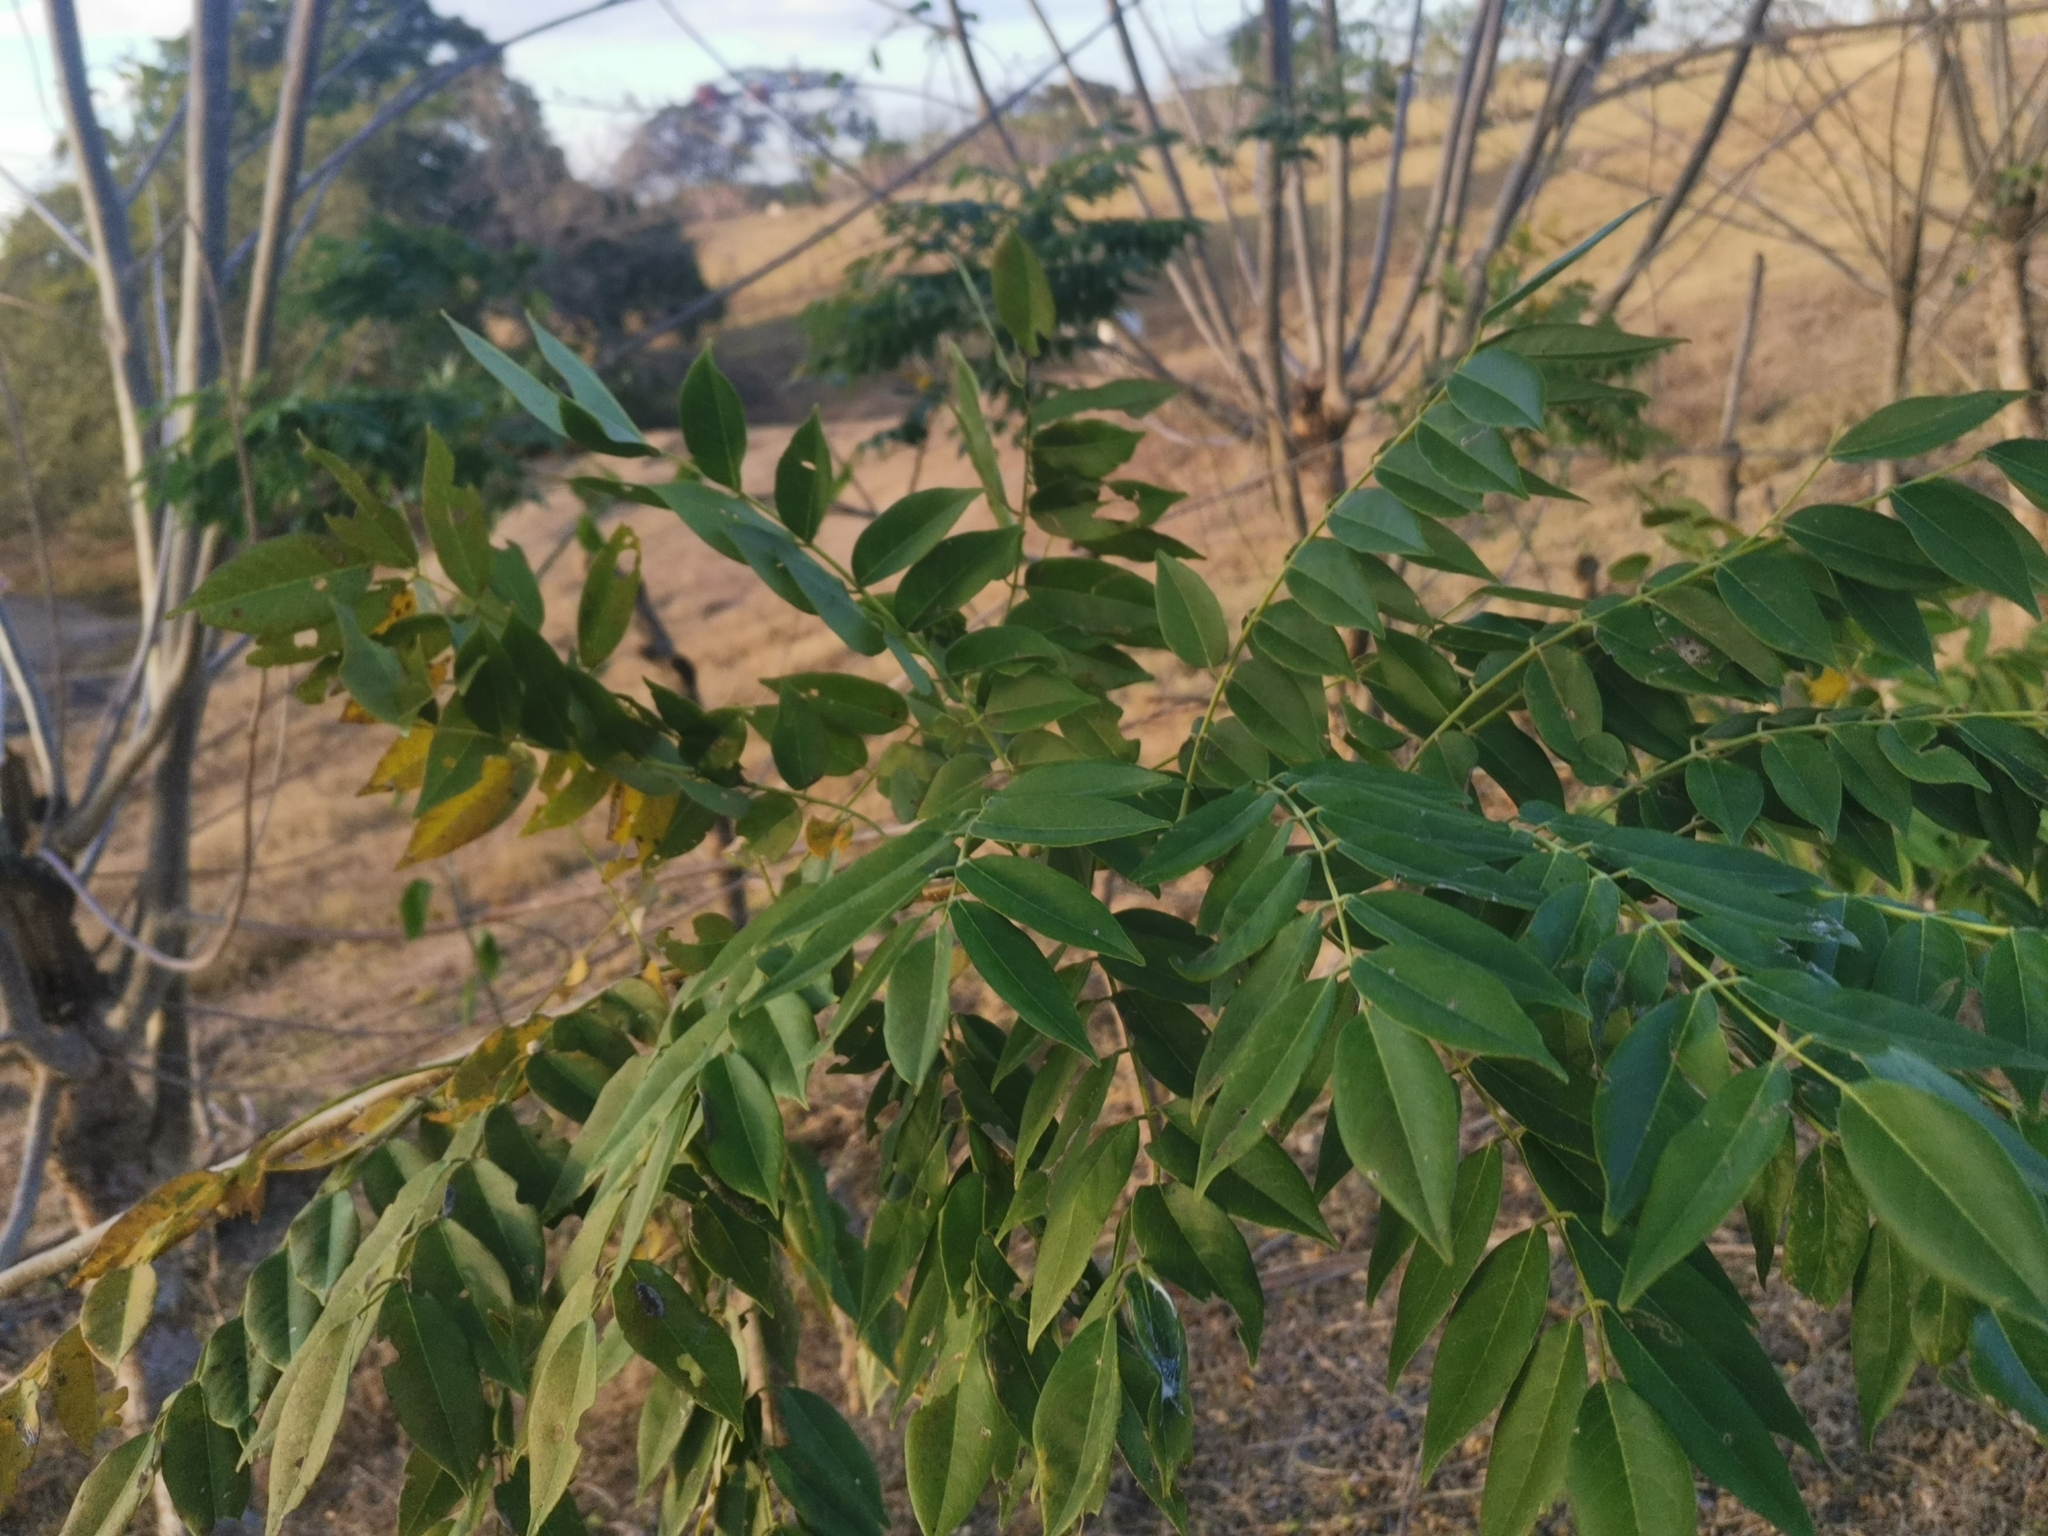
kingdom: Plantae
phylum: Tracheophyta
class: Magnoliopsida
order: Fabales
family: Fabaceae
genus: Gliricidia
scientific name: Gliricidia sepium
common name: Quickstick
